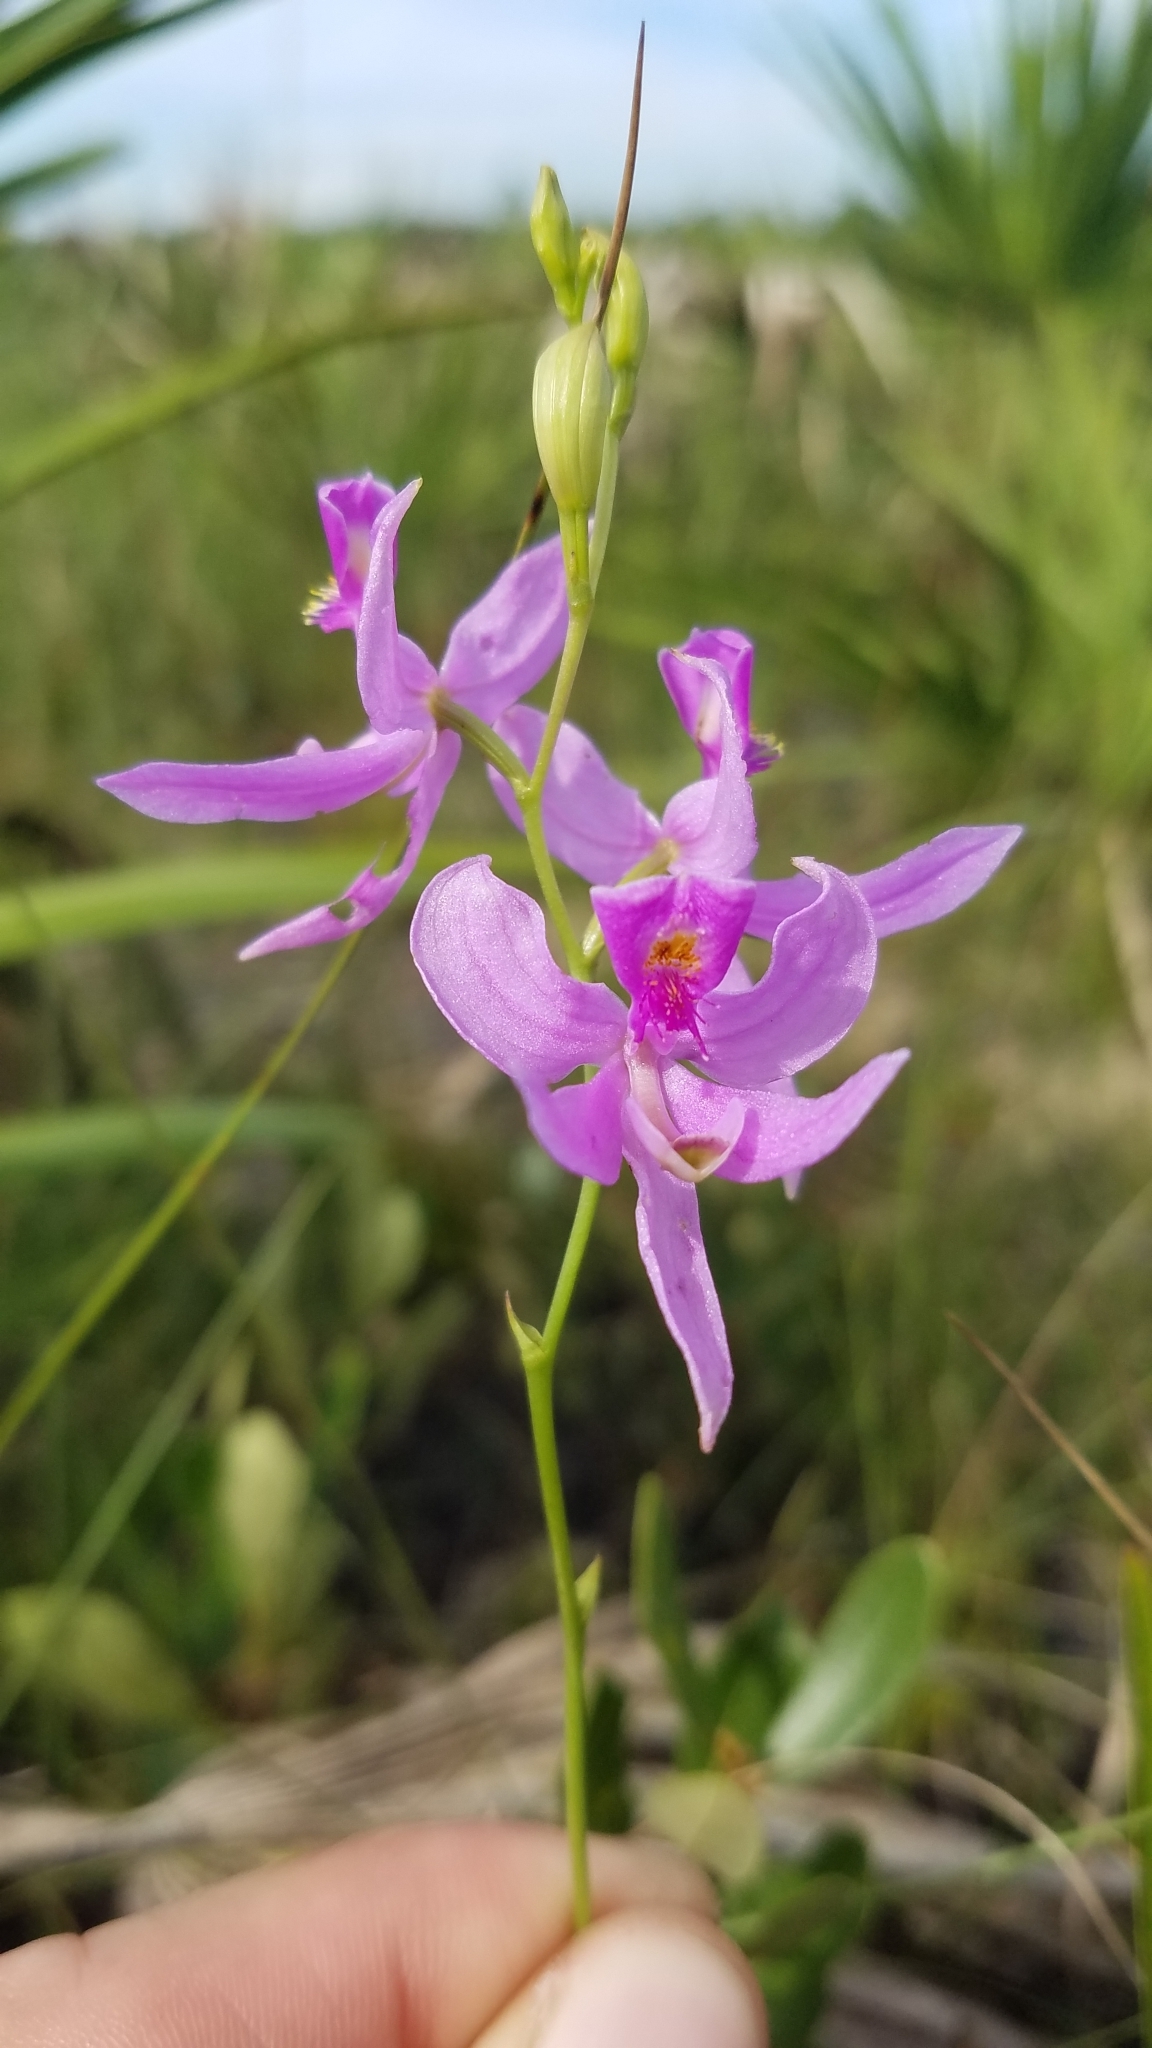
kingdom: Plantae
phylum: Tracheophyta
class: Liliopsida
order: Asparagales
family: Orchidaceae
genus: Calopogon
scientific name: Calopogon pallidus
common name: Pale grasspink
